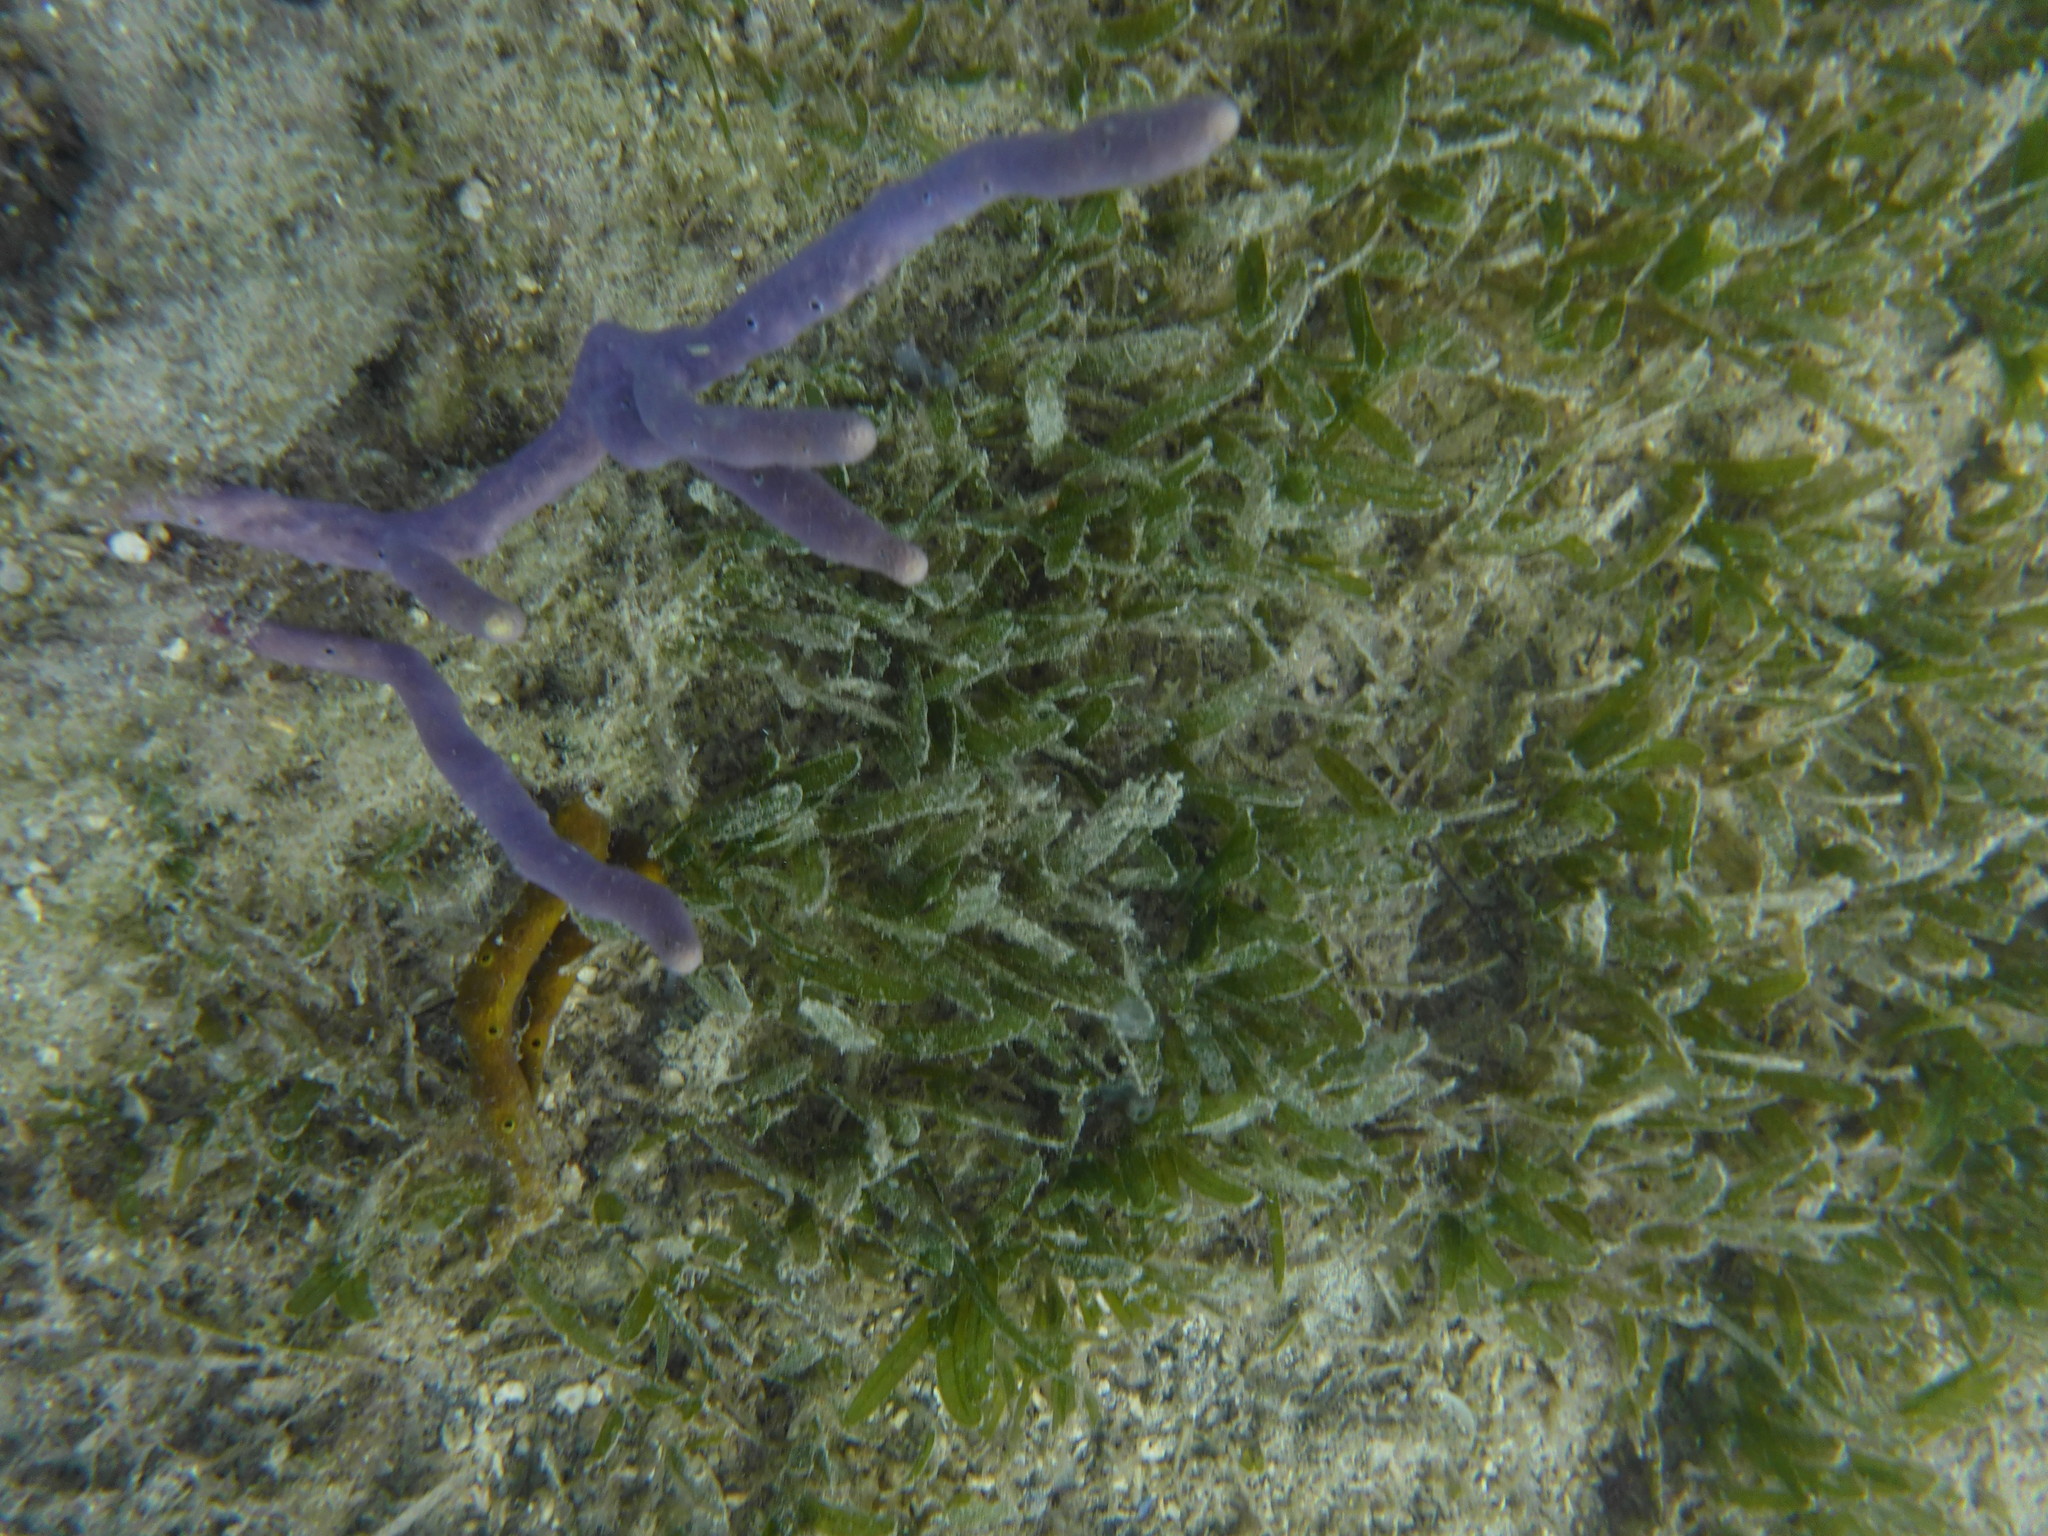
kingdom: Plantae
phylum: Tracheophyta
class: Liliopsida
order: Alismatales
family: Hydrocharitaceae
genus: Thalassia
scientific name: Thalassia testudinum
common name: Species code: tt
